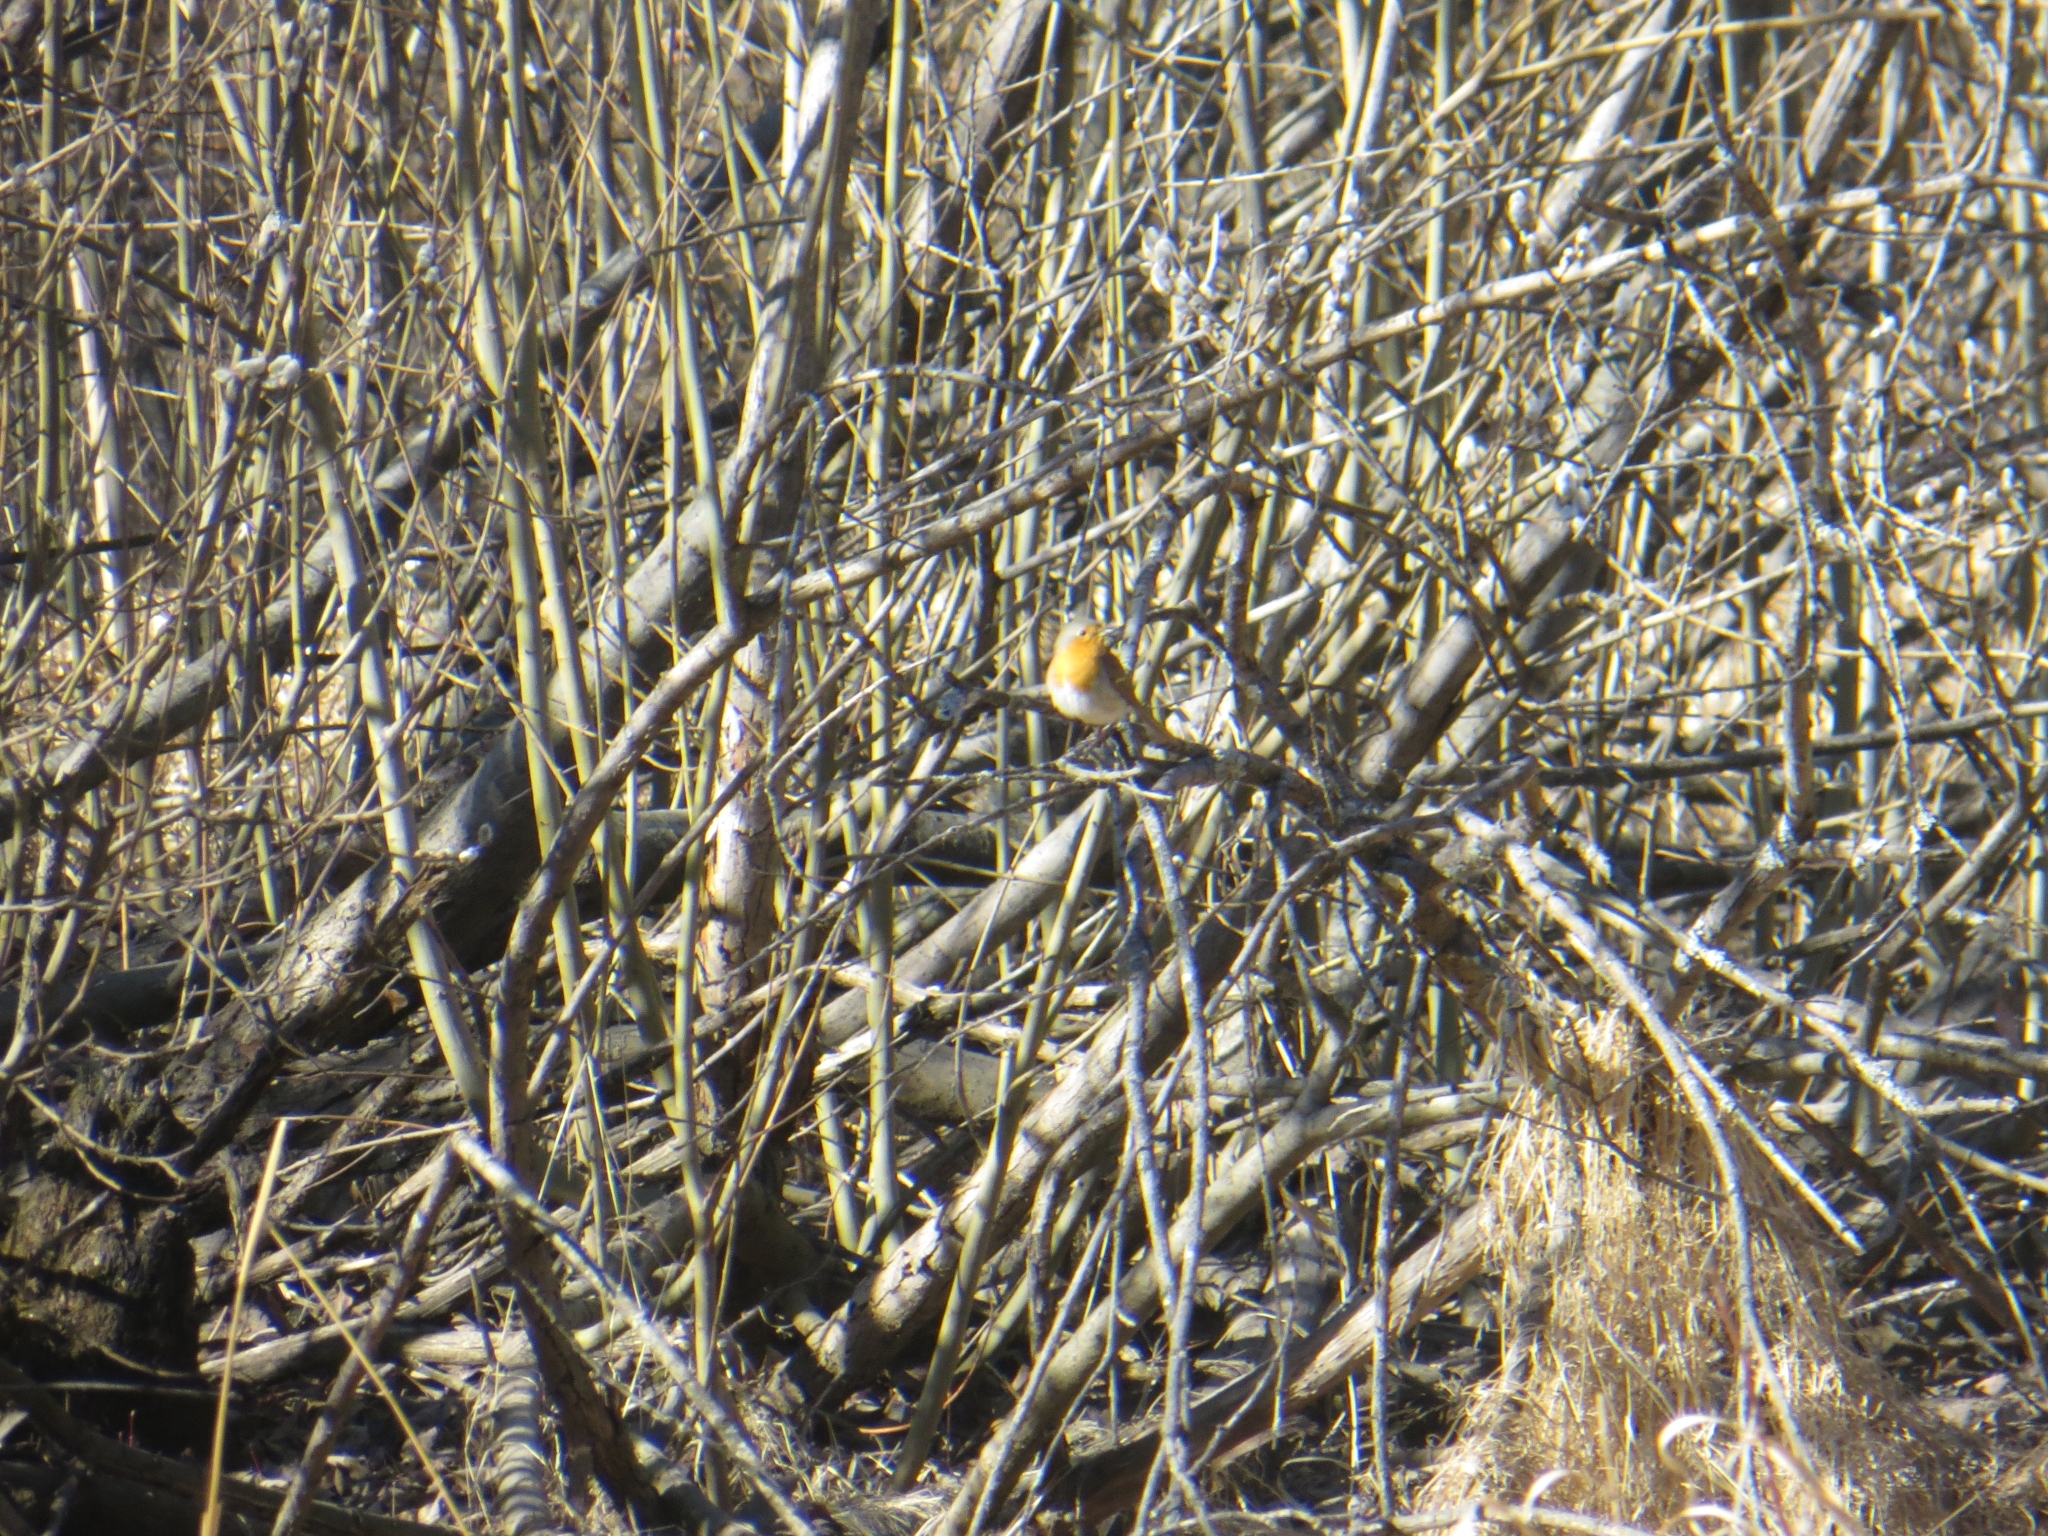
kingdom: Animalia
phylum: Chordata
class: Aves
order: Passeriformes
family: Muscicapidae
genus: Erithacus
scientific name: Erithacus rubecula
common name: European robin
